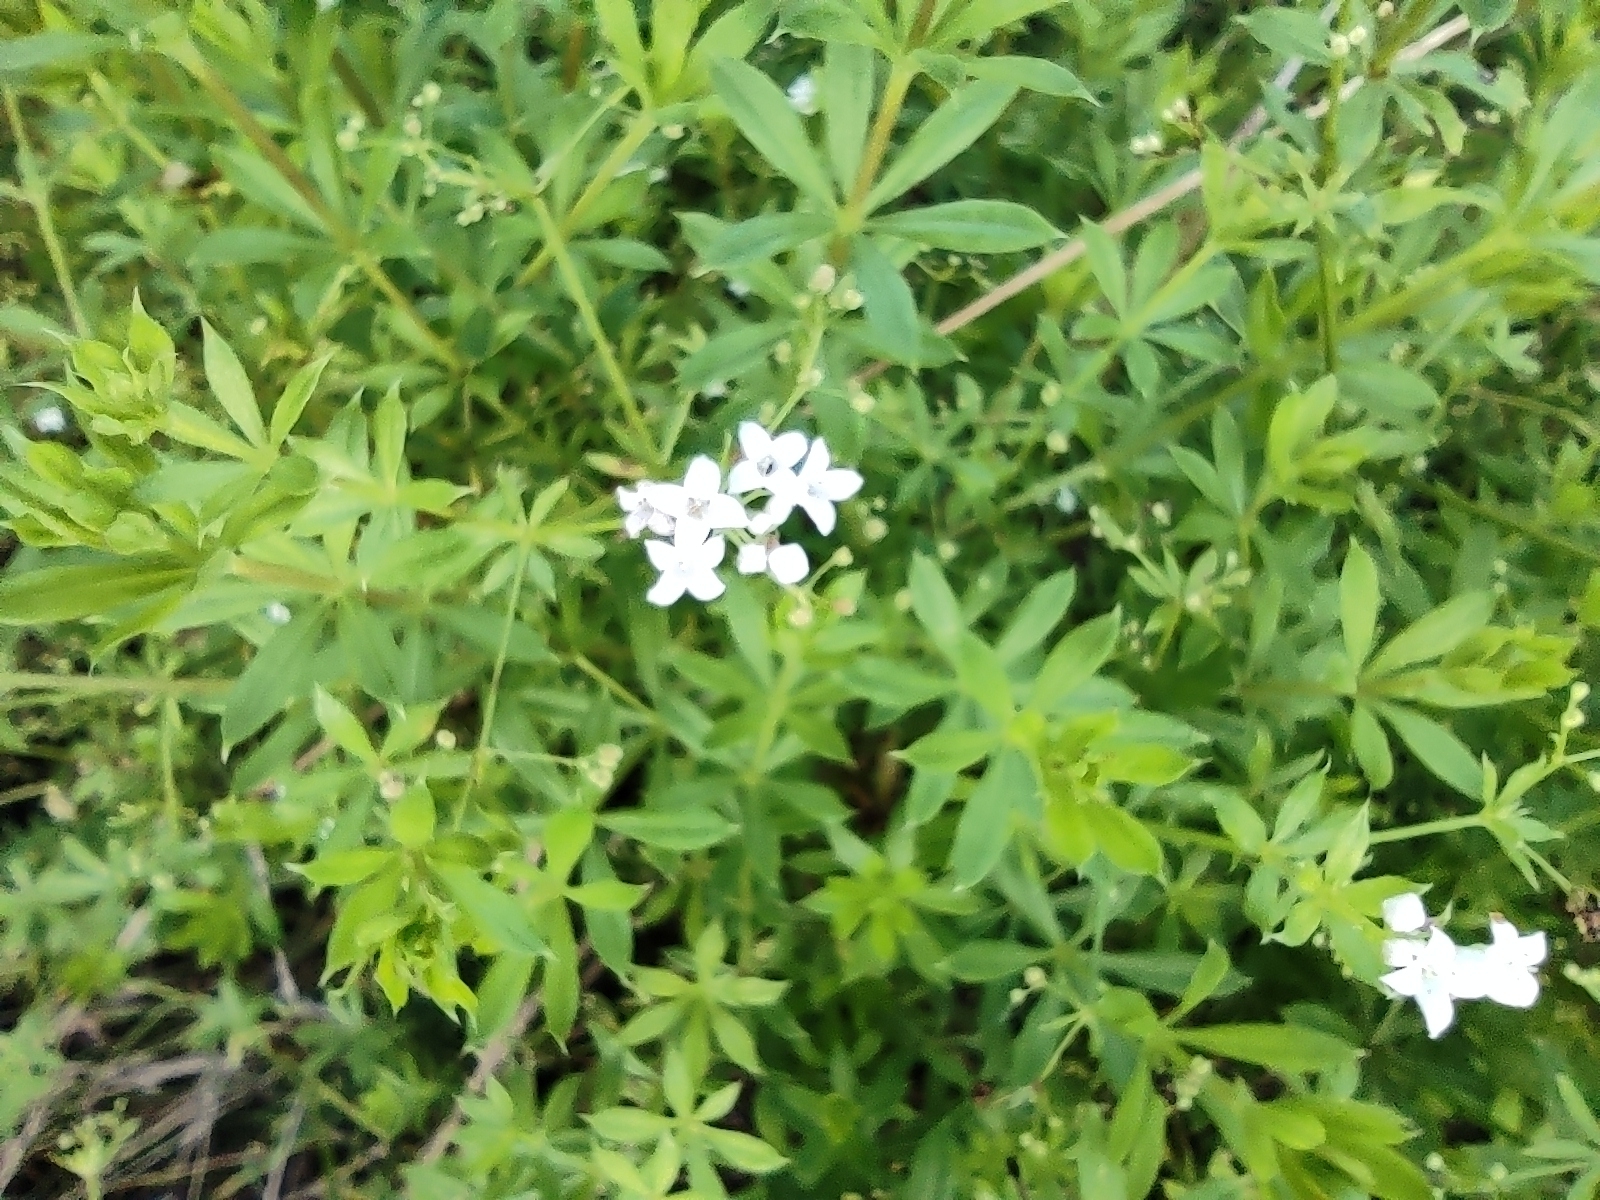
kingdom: Plantae
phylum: Tracheophyta
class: Magnoliopsida
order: Gentianales
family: Rubiaceae
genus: Galium
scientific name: Galium rivale
